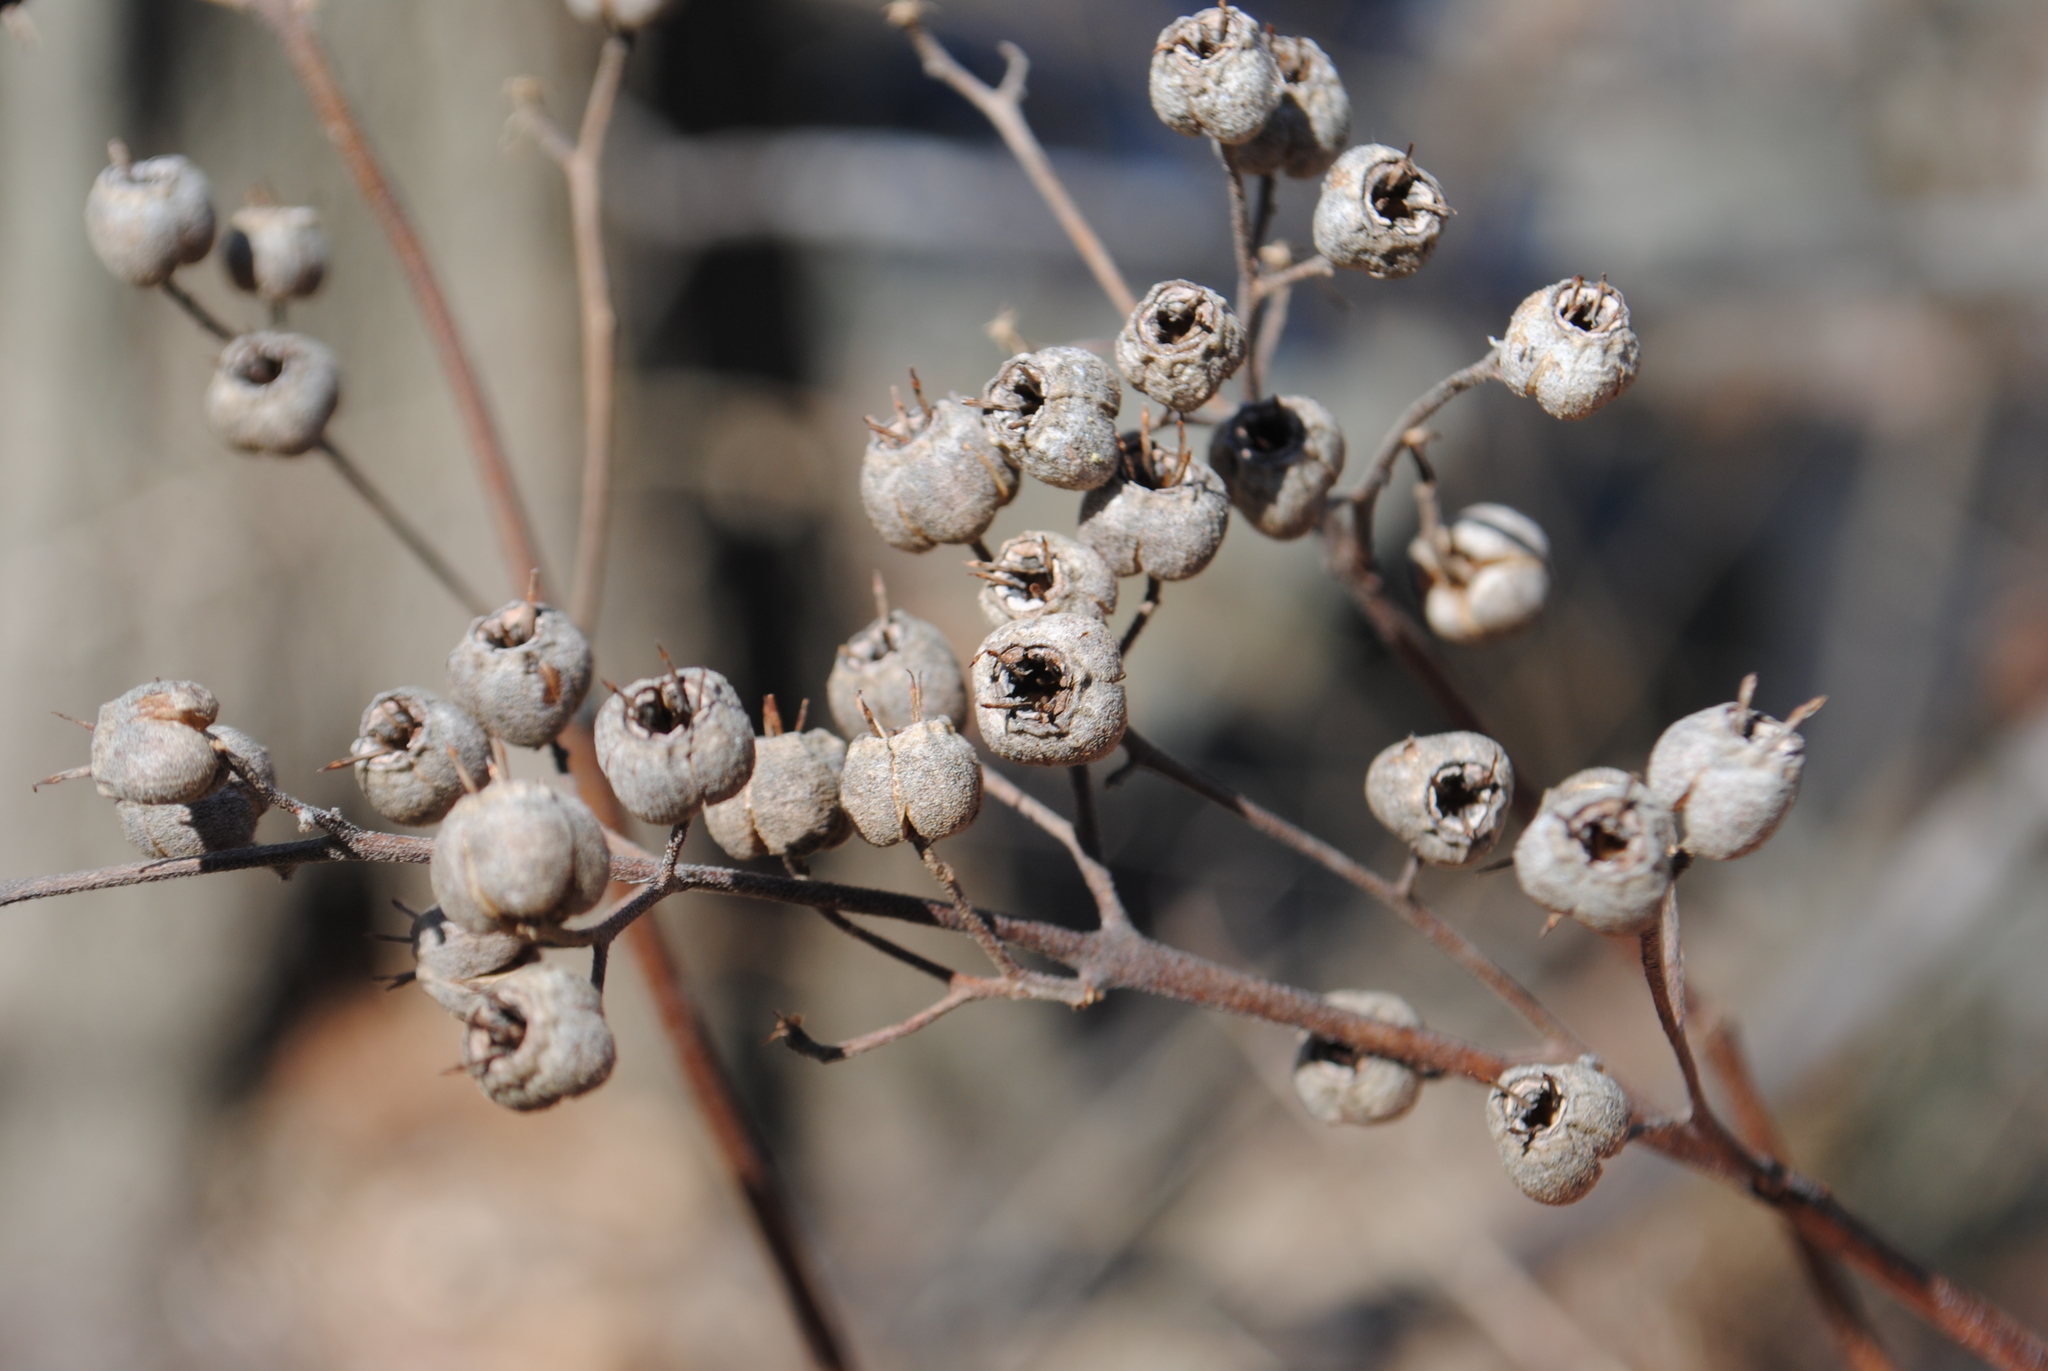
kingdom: Plantae
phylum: Tracheophyta
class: Magnoliopsida
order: Cornales
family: Hydrangeaceae
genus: Deutzia
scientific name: Deutzia gracilis
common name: Slender pride of rochester
